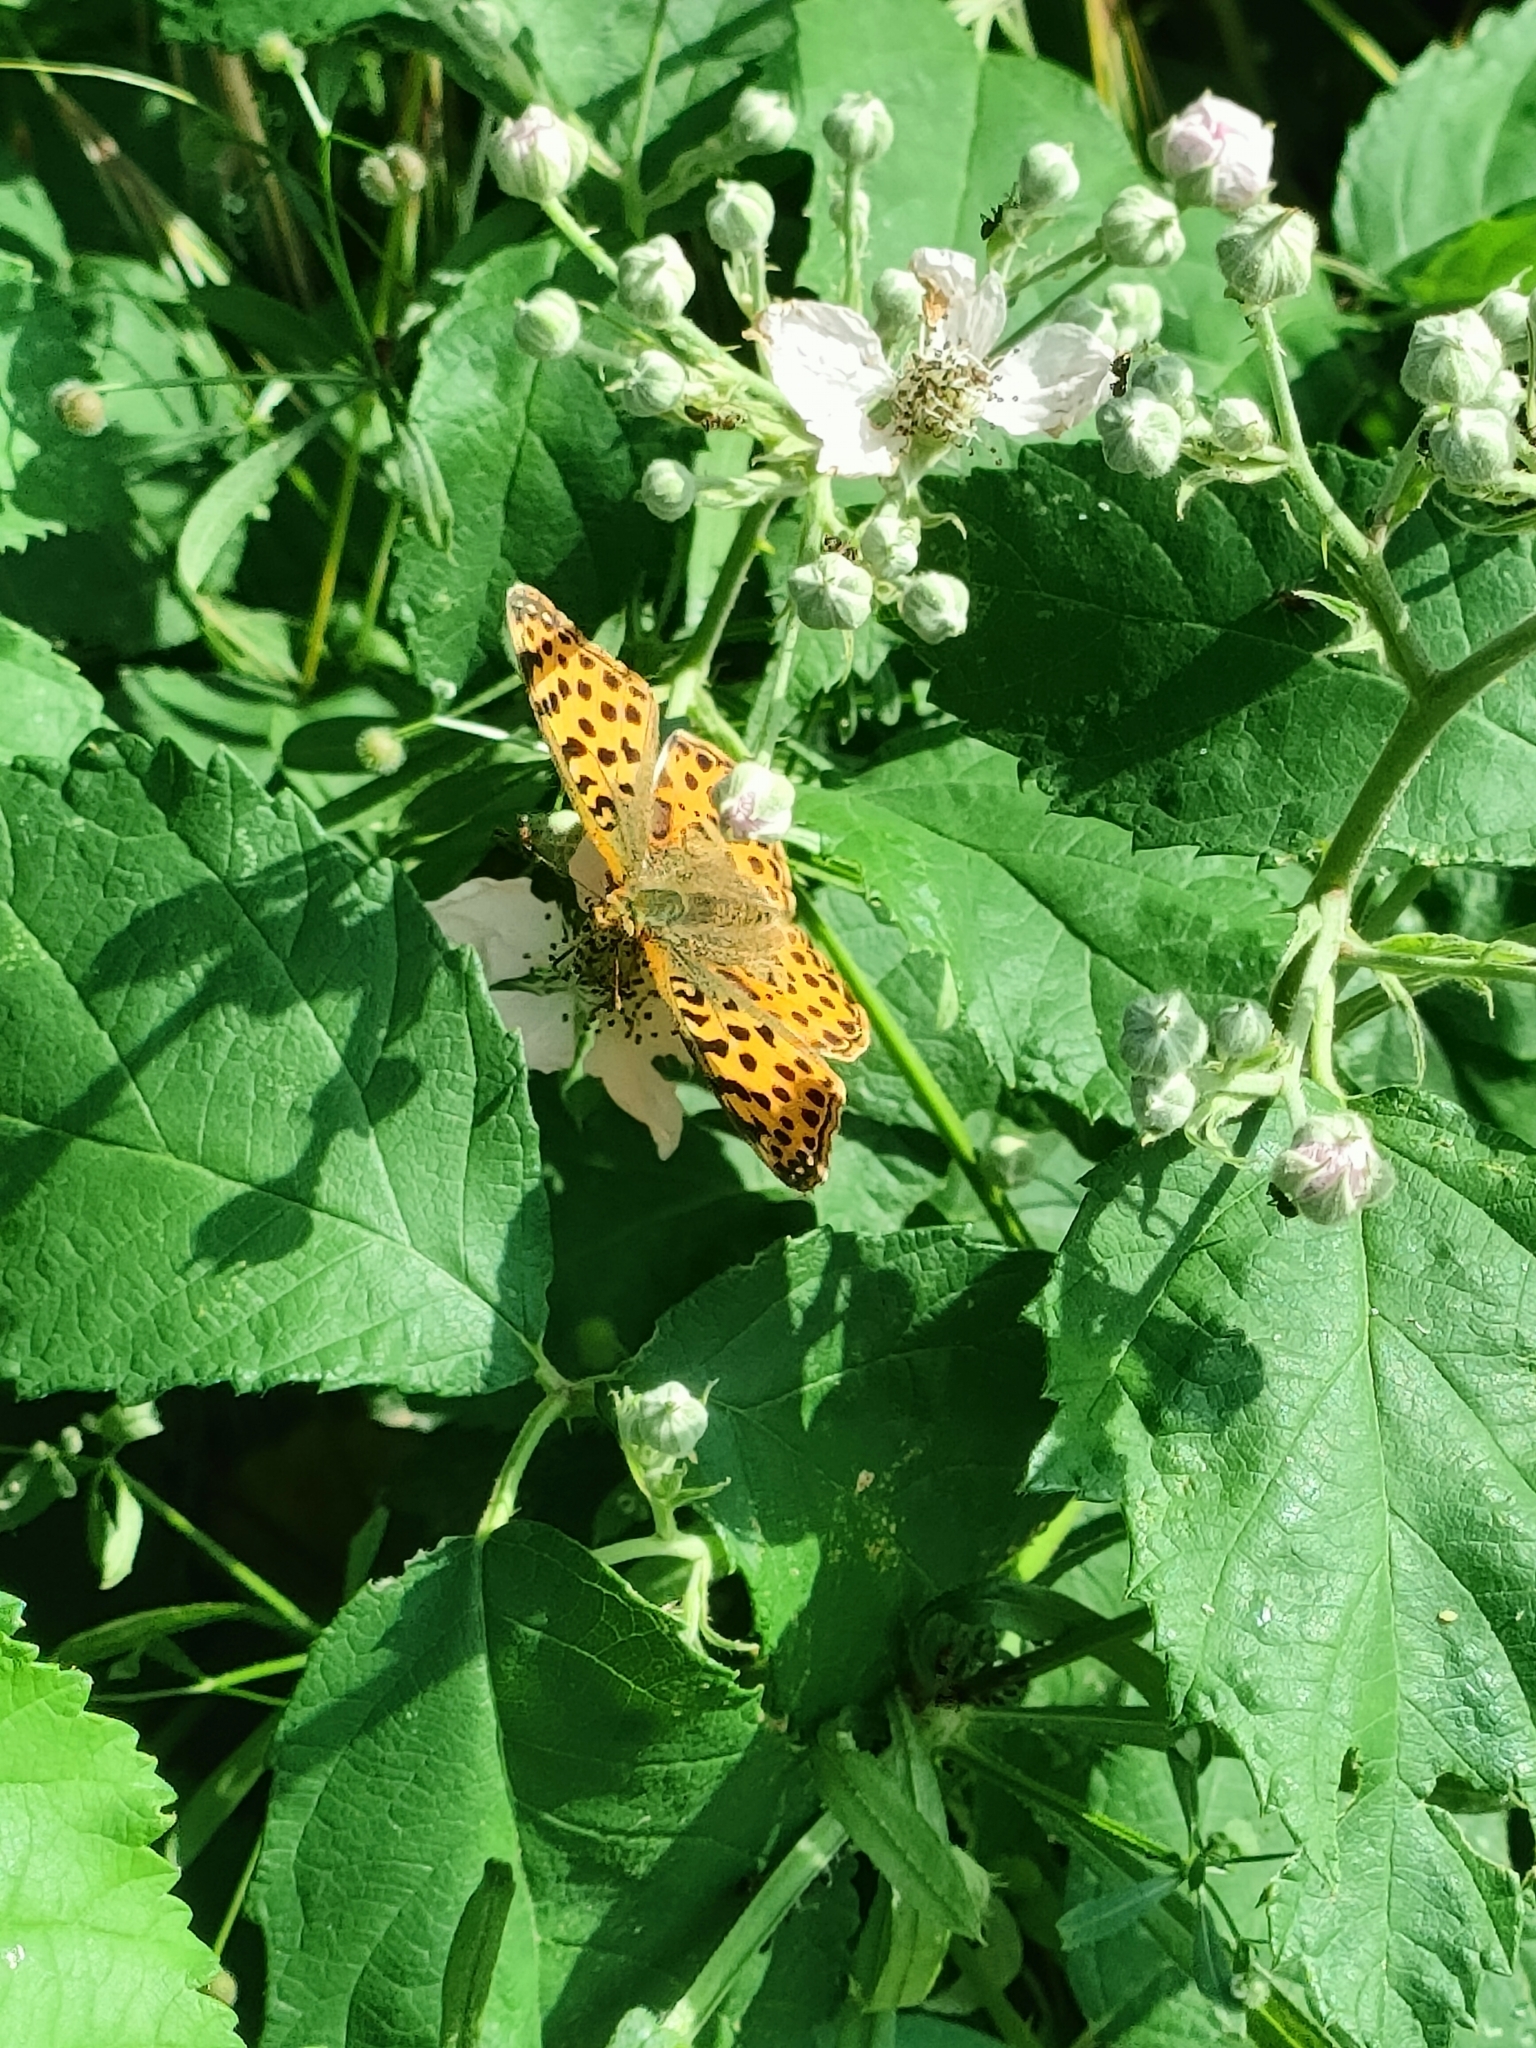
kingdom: Animalia
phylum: Arthropoda
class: Insecta
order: Lepidoptera
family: Nymphalidae
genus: Issoria
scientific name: Issoria lathonia
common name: Queen of spain fritillary
